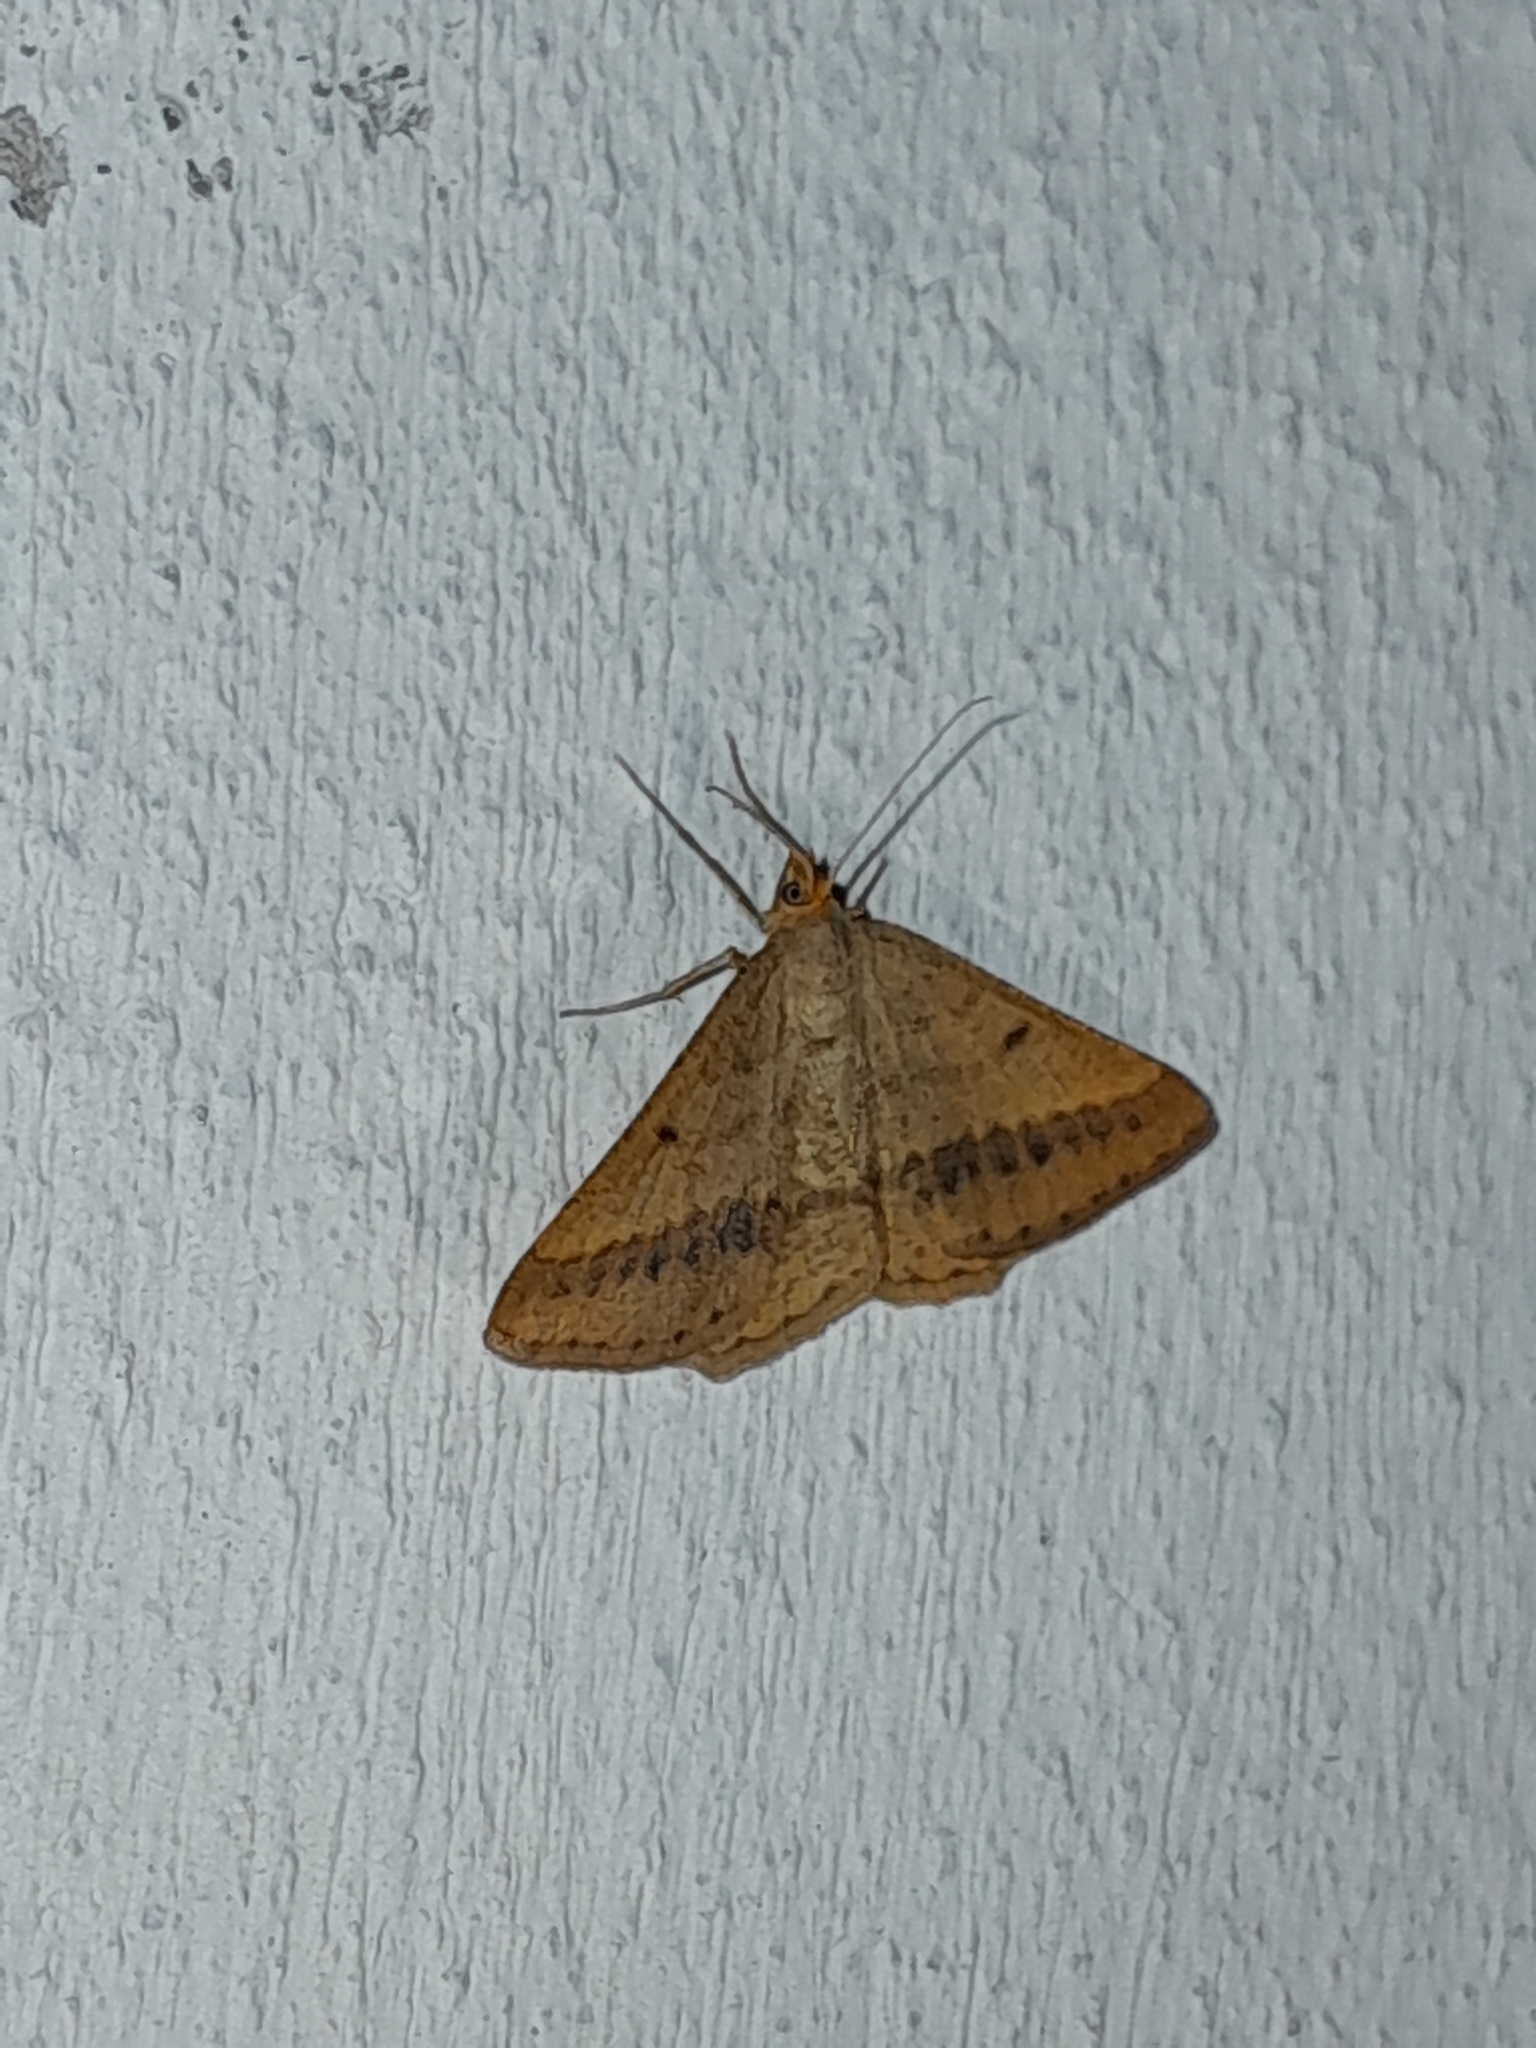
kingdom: Animalia
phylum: Arthropoda
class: Insecta
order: Lepidoptera
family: Geometridae
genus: Tephrina
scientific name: Tephrina arenacearia
